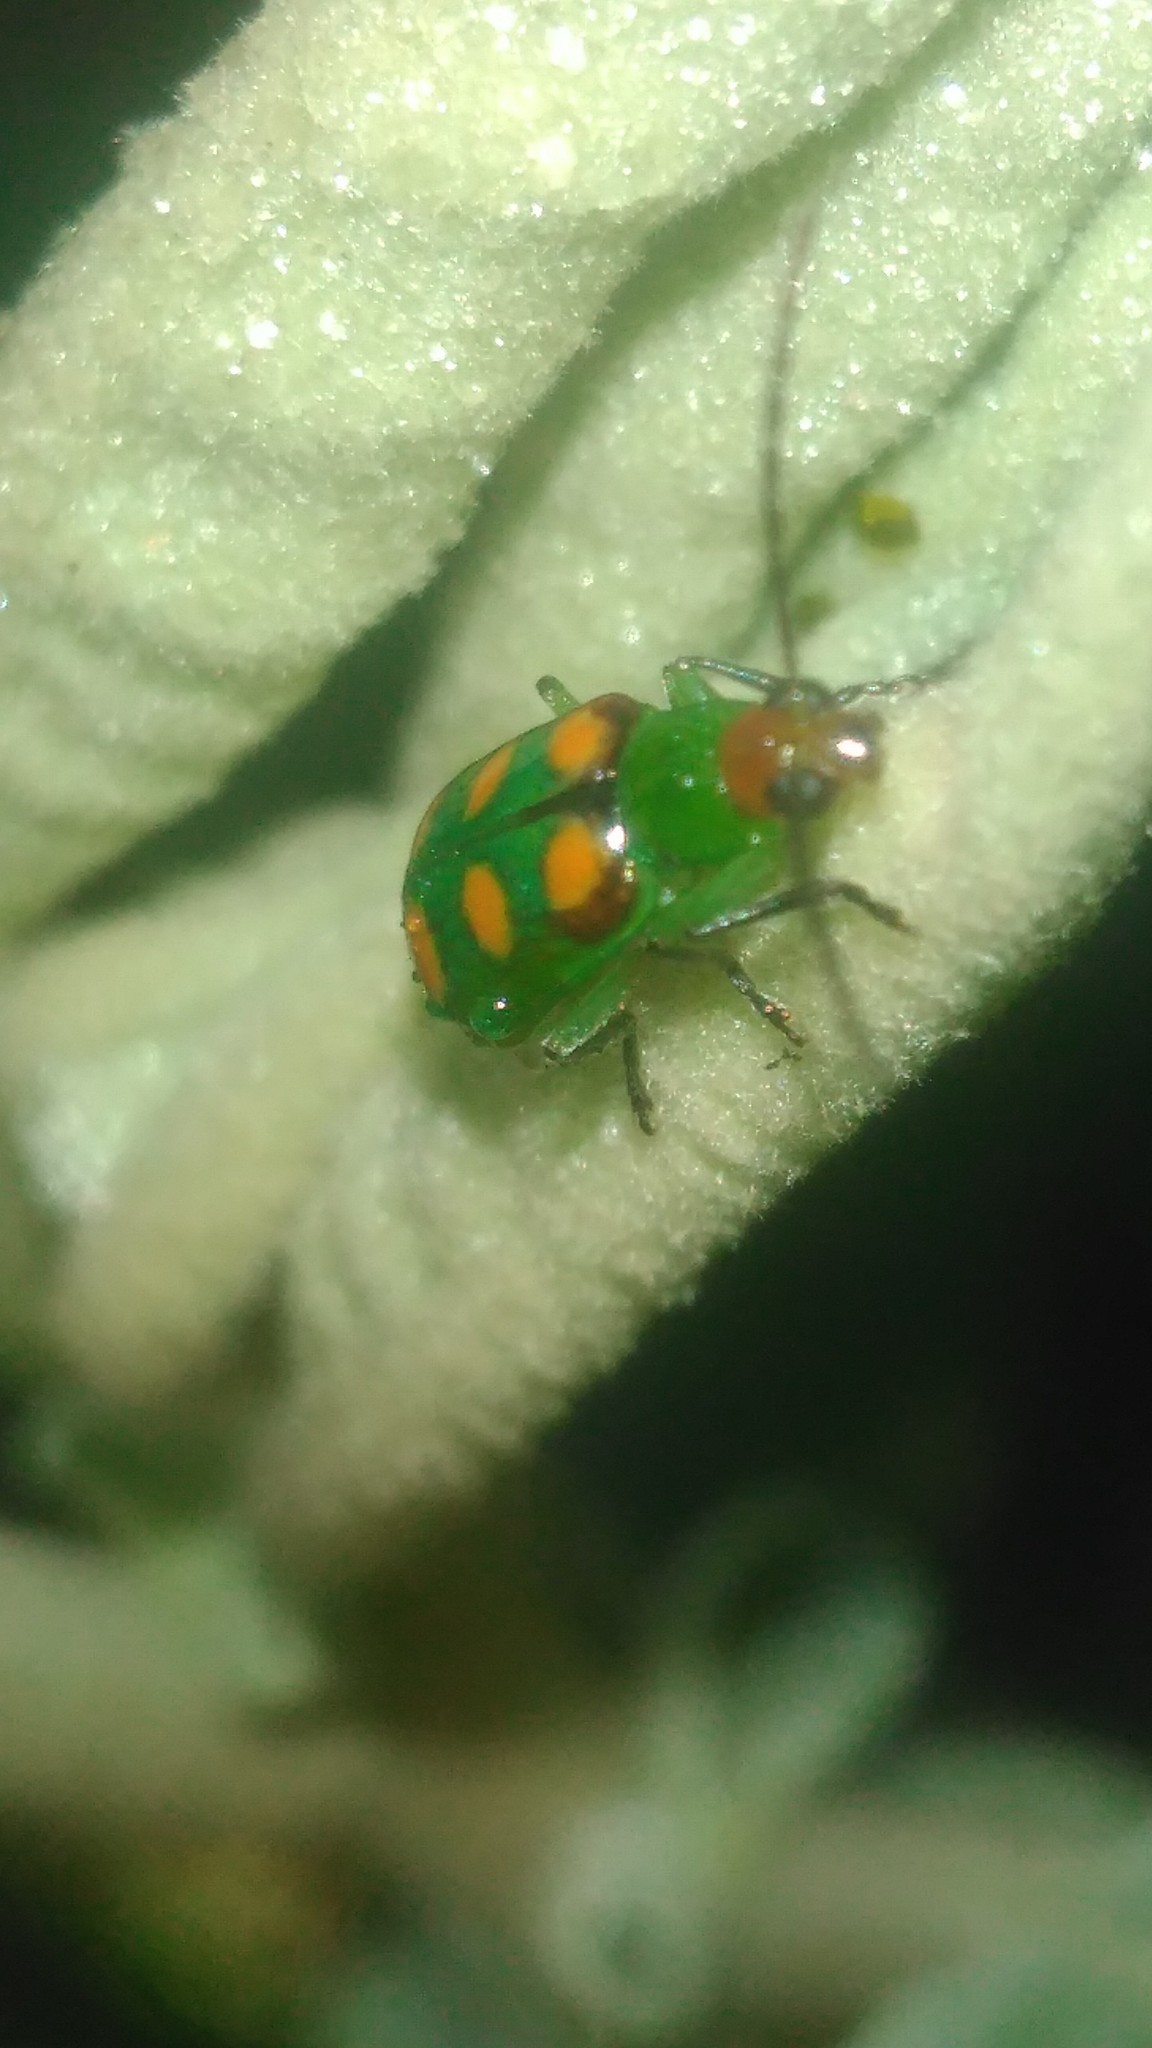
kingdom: Animalia
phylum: Arthropoda
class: Insecta
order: Coleoptera
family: Chrysomelidae
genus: Diabrotica
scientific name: Diabrotica speciosa
